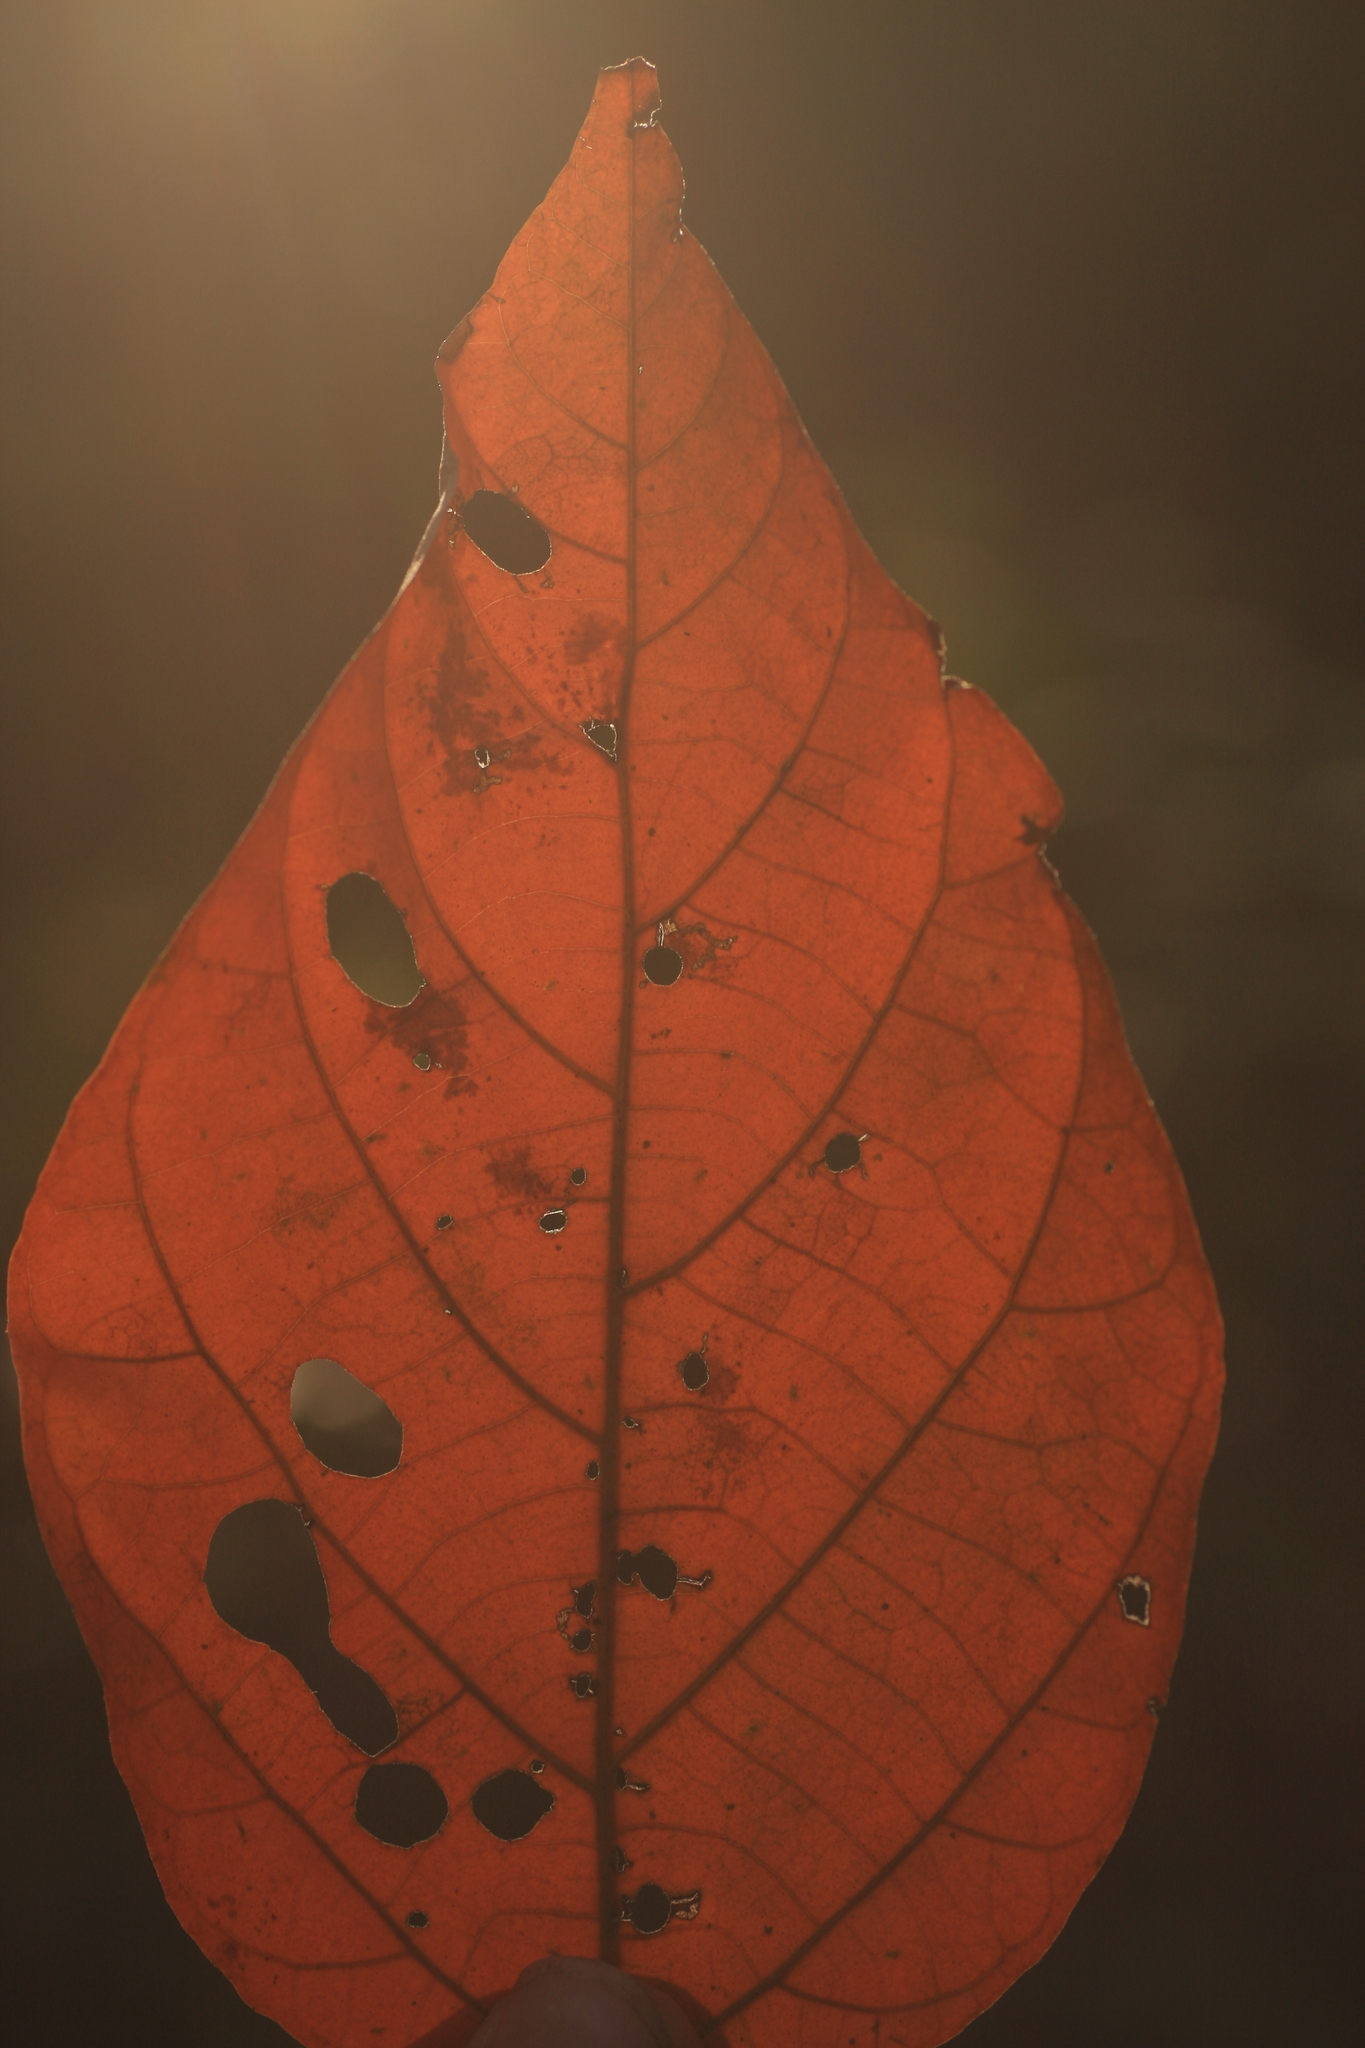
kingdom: Plantae
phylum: Tracheophyta
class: Magnoliopsida
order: Malpighiales
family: Euphorbiaceae
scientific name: Euphorbiaceae
